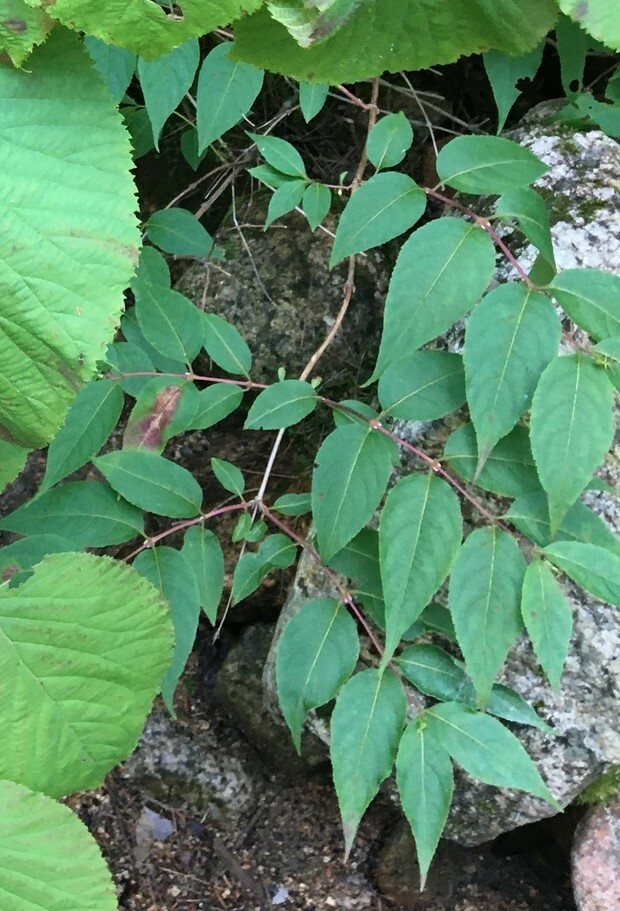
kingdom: Plantae
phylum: Tracheophyta
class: Magnoliopsida
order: Dipsacales
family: Caprifoliaceae
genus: Diervilla
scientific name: Diervilla lonicera
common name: Bush-honeysuckle
